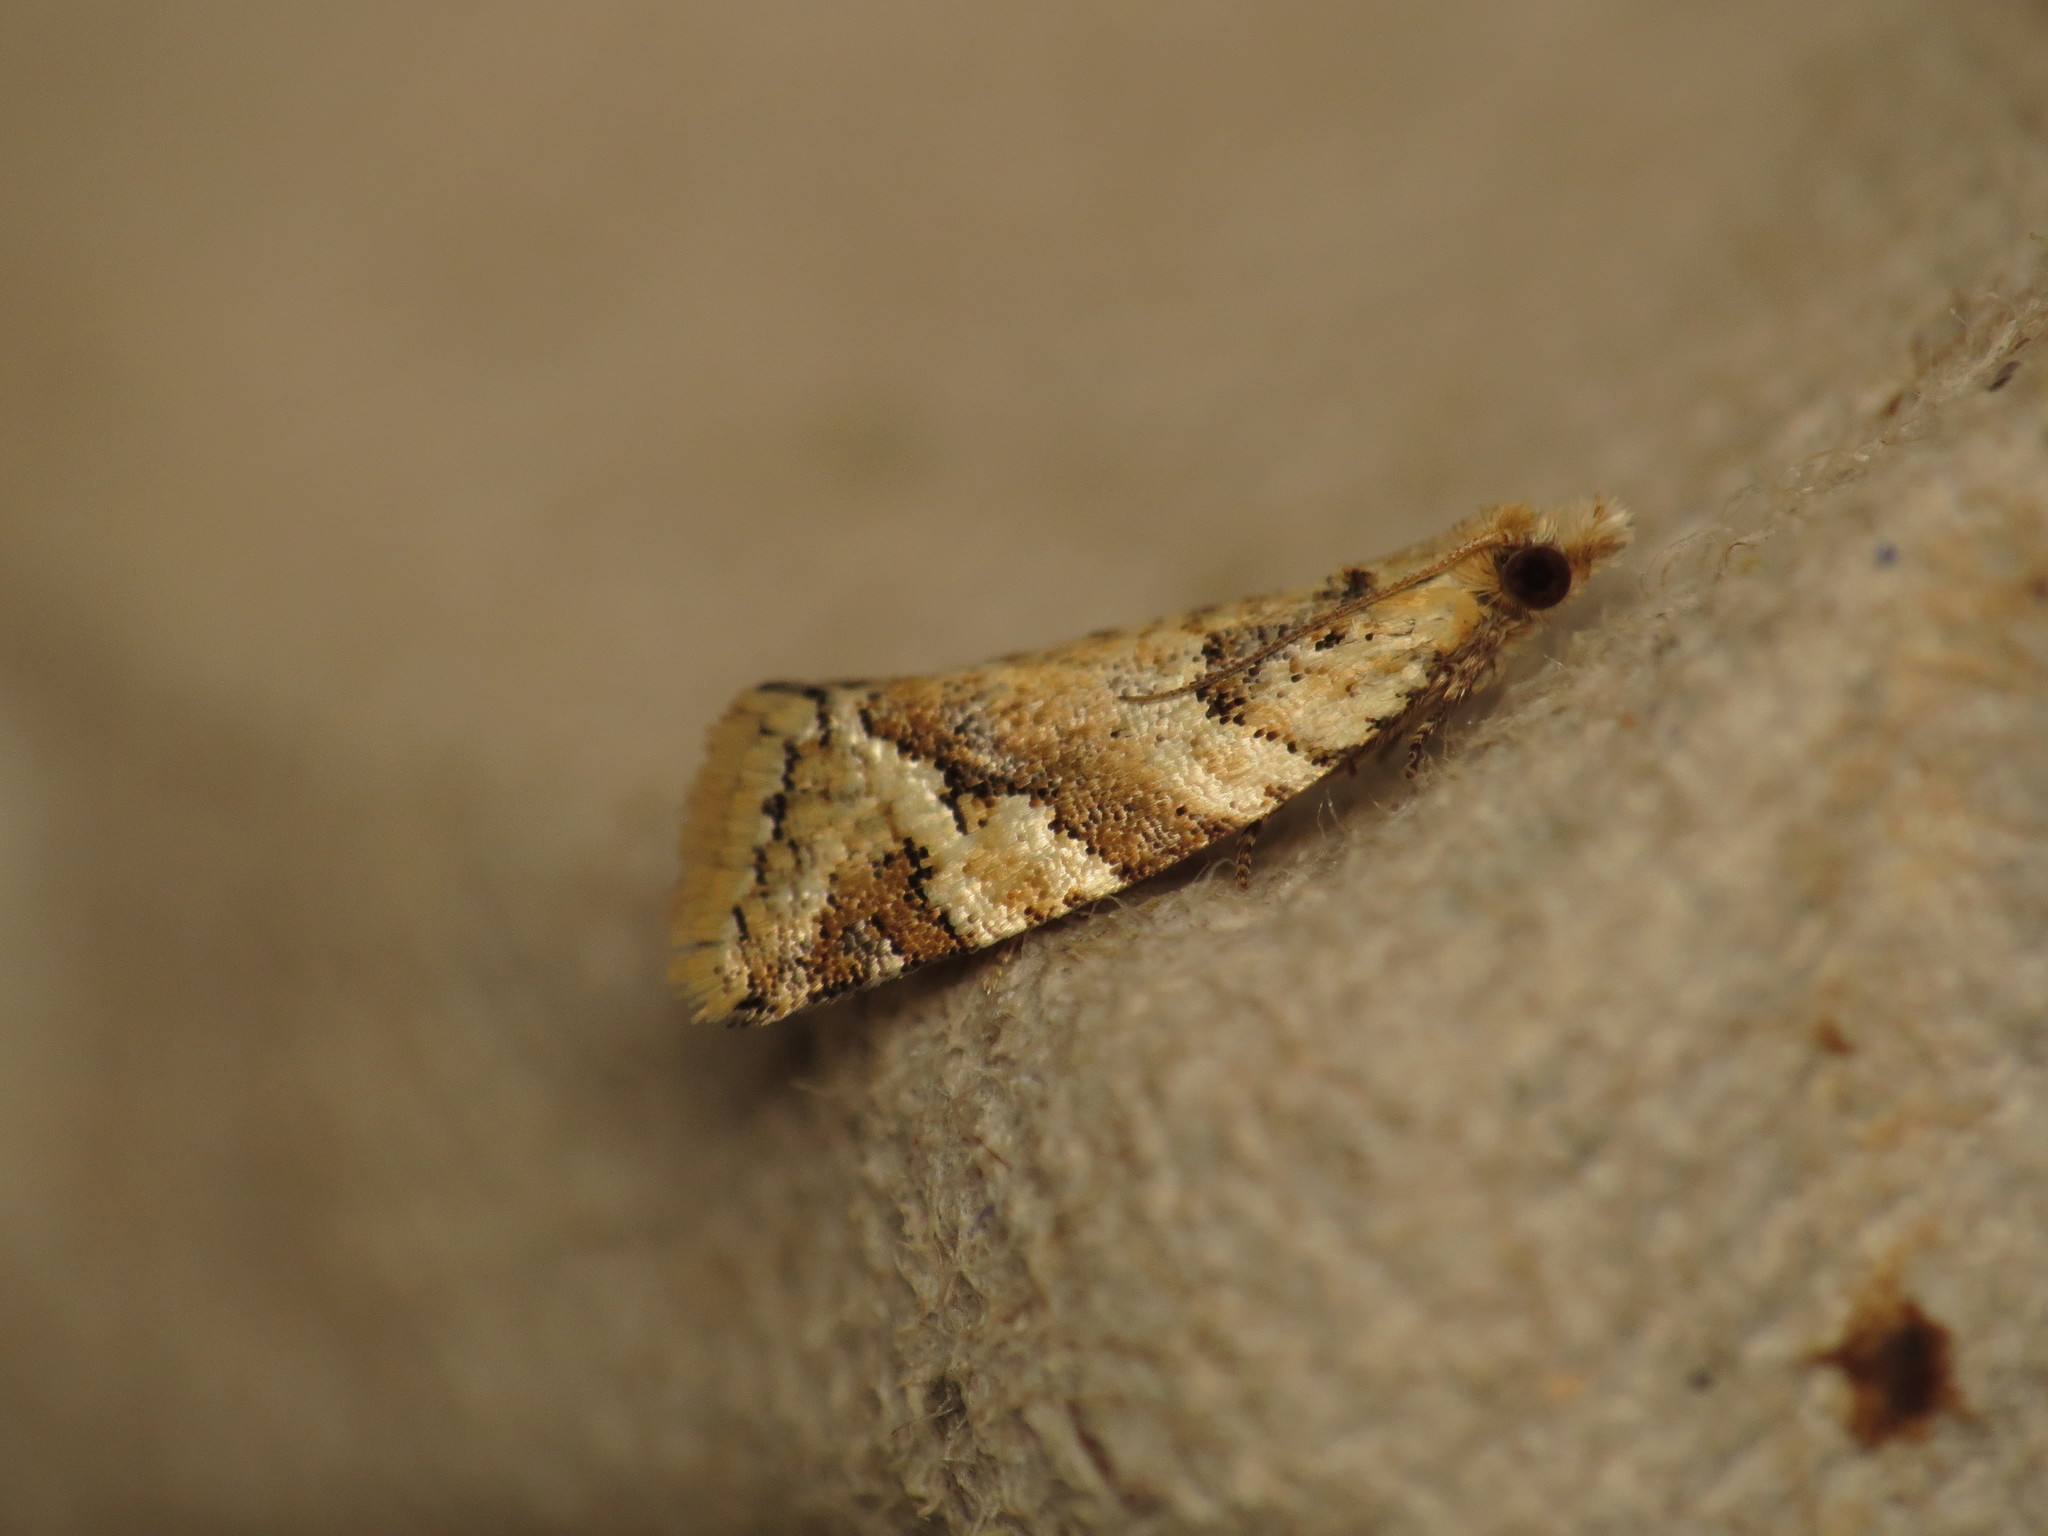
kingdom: Animalia
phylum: Arthropoda
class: Insecta
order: Lepidoptera
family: Tortricidae
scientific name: Tortricidae
